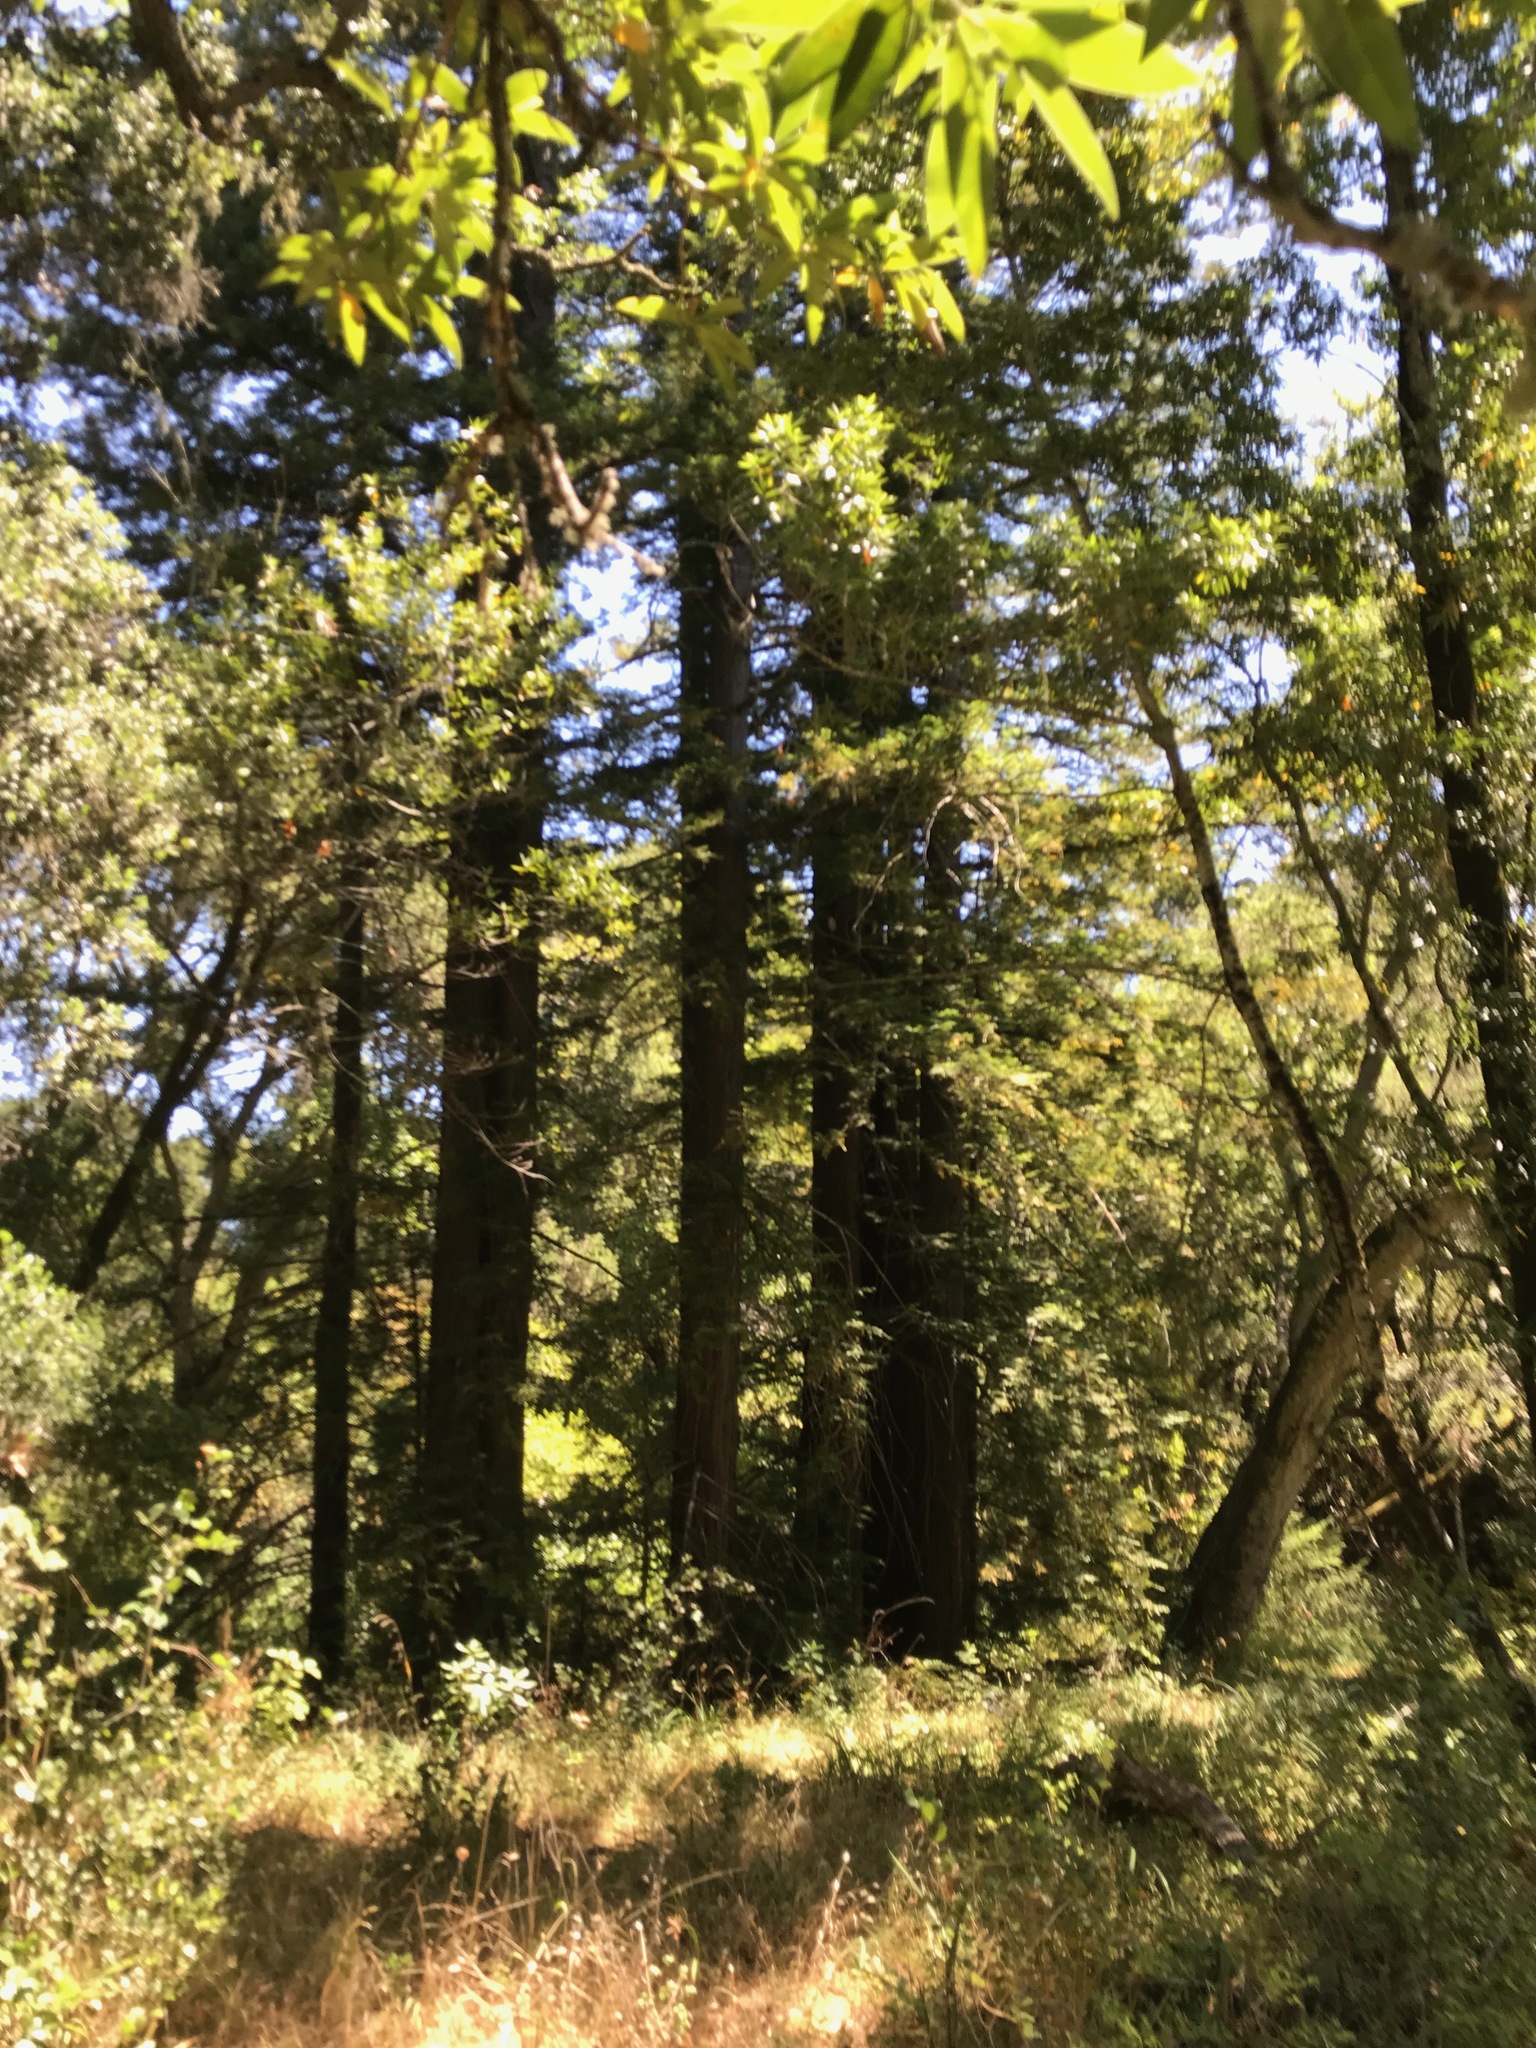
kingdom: Plantae
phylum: Tracheophyta
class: Pinopsida
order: Pinales
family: Cupressaceae
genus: Sequoia
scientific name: Sequoia sempervirens
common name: Coast redwood
